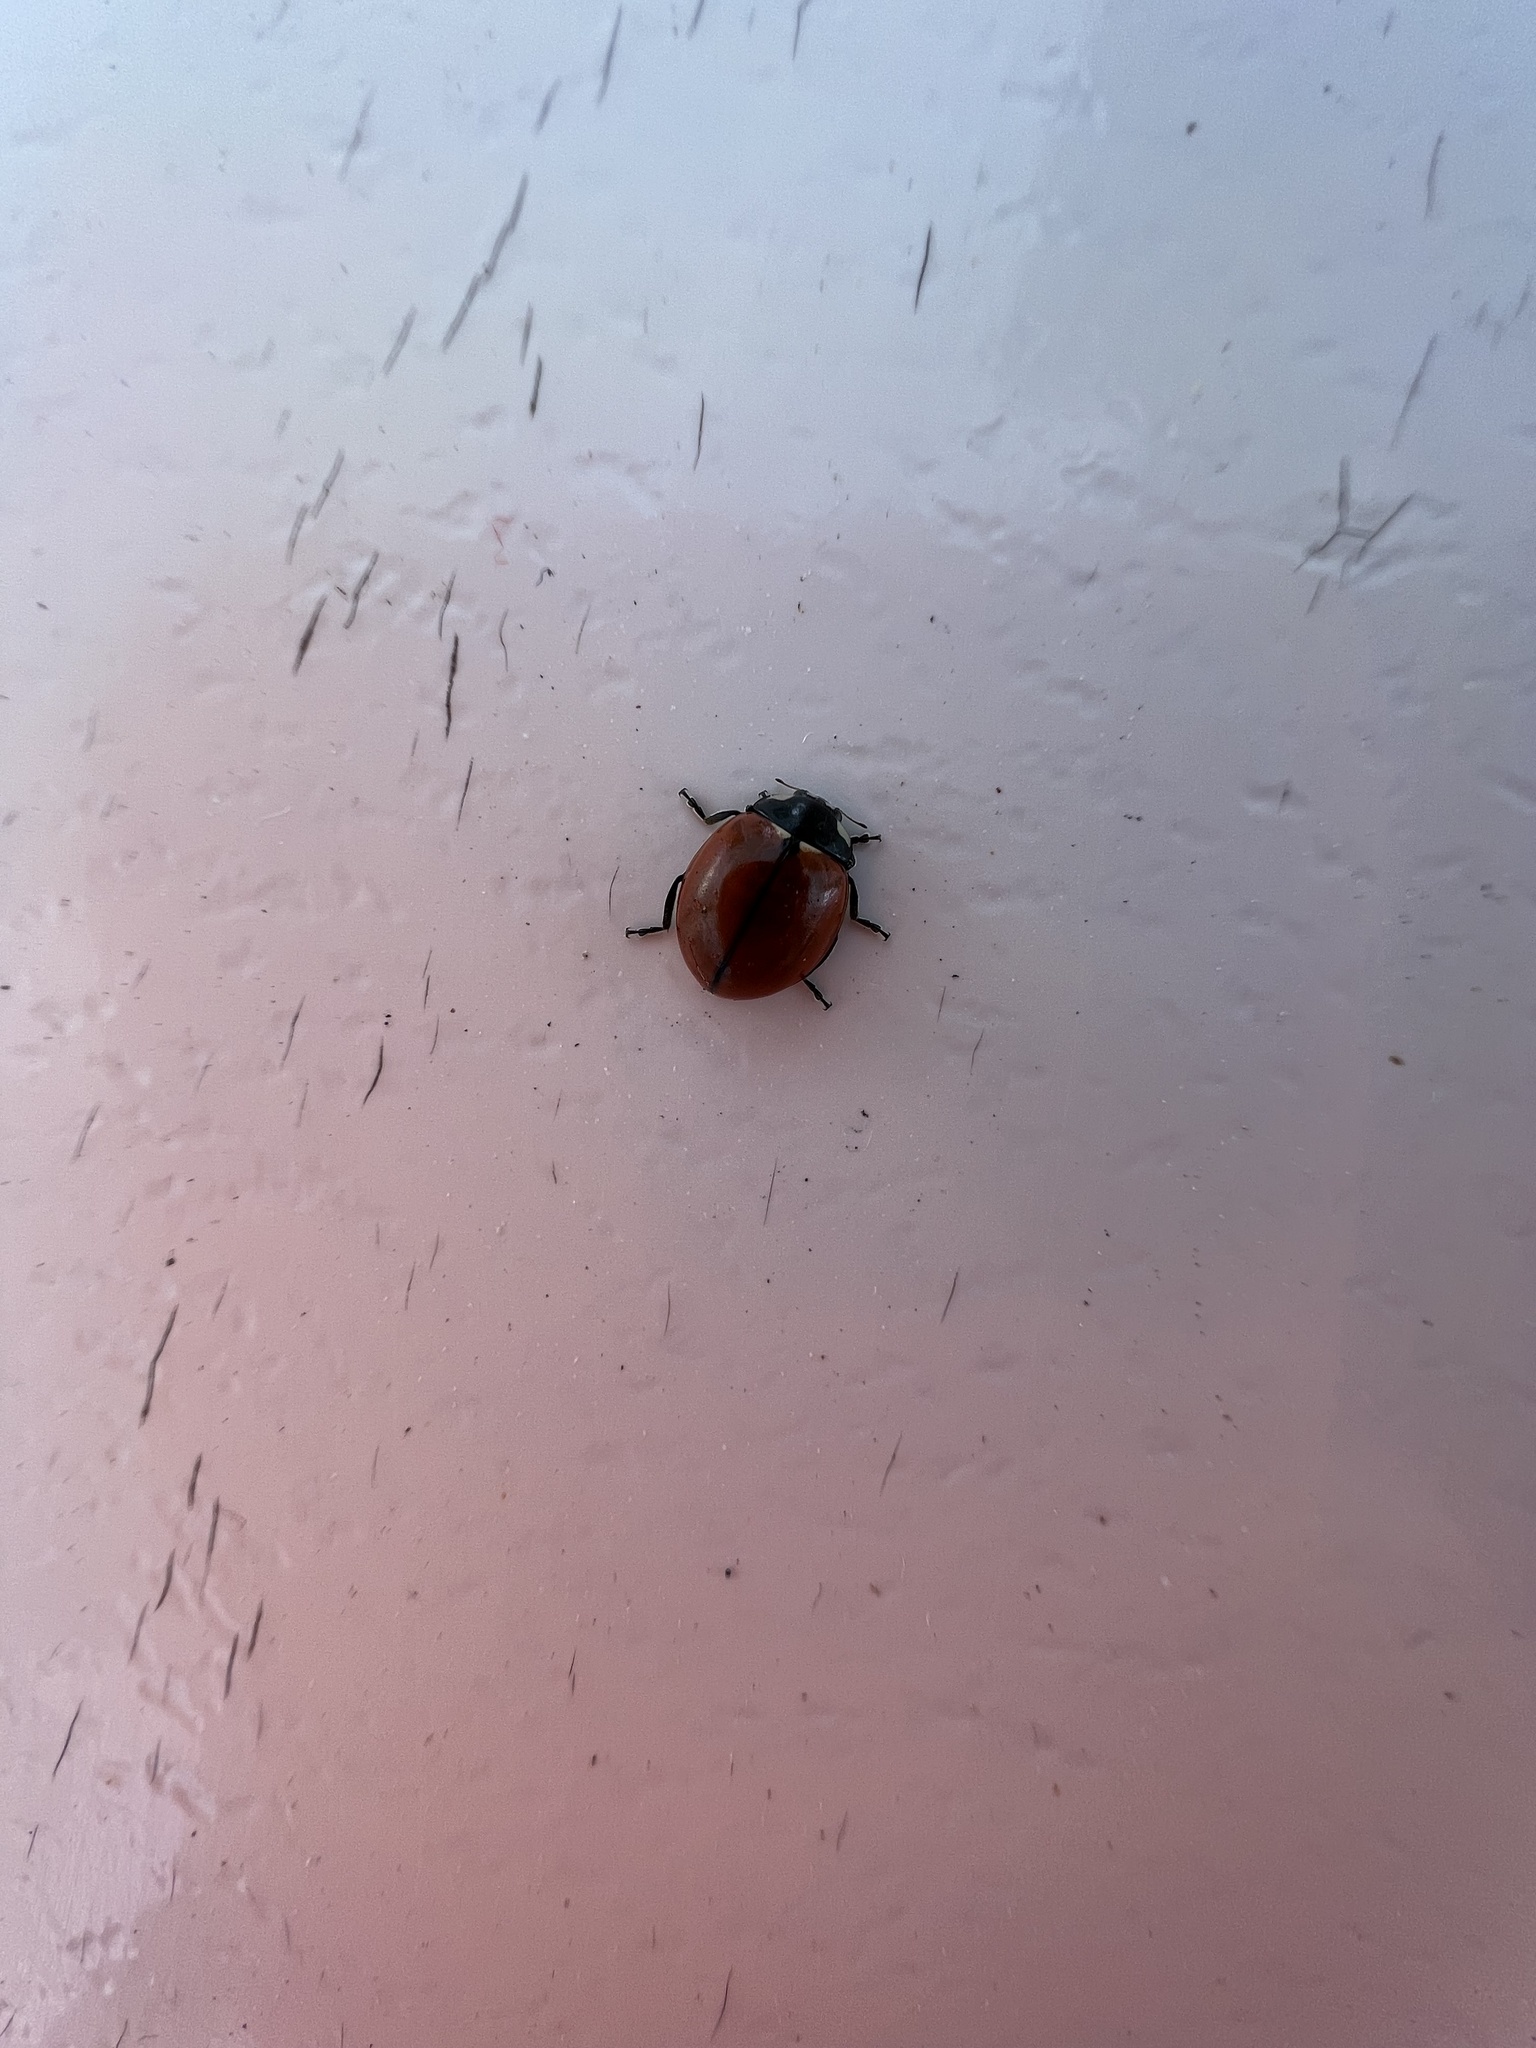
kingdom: Animalia
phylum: Arthropoda
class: Insecta
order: Coleoptera
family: Coccinellidae
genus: Coccinella
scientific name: Coccinella californica
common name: Lady beetle
